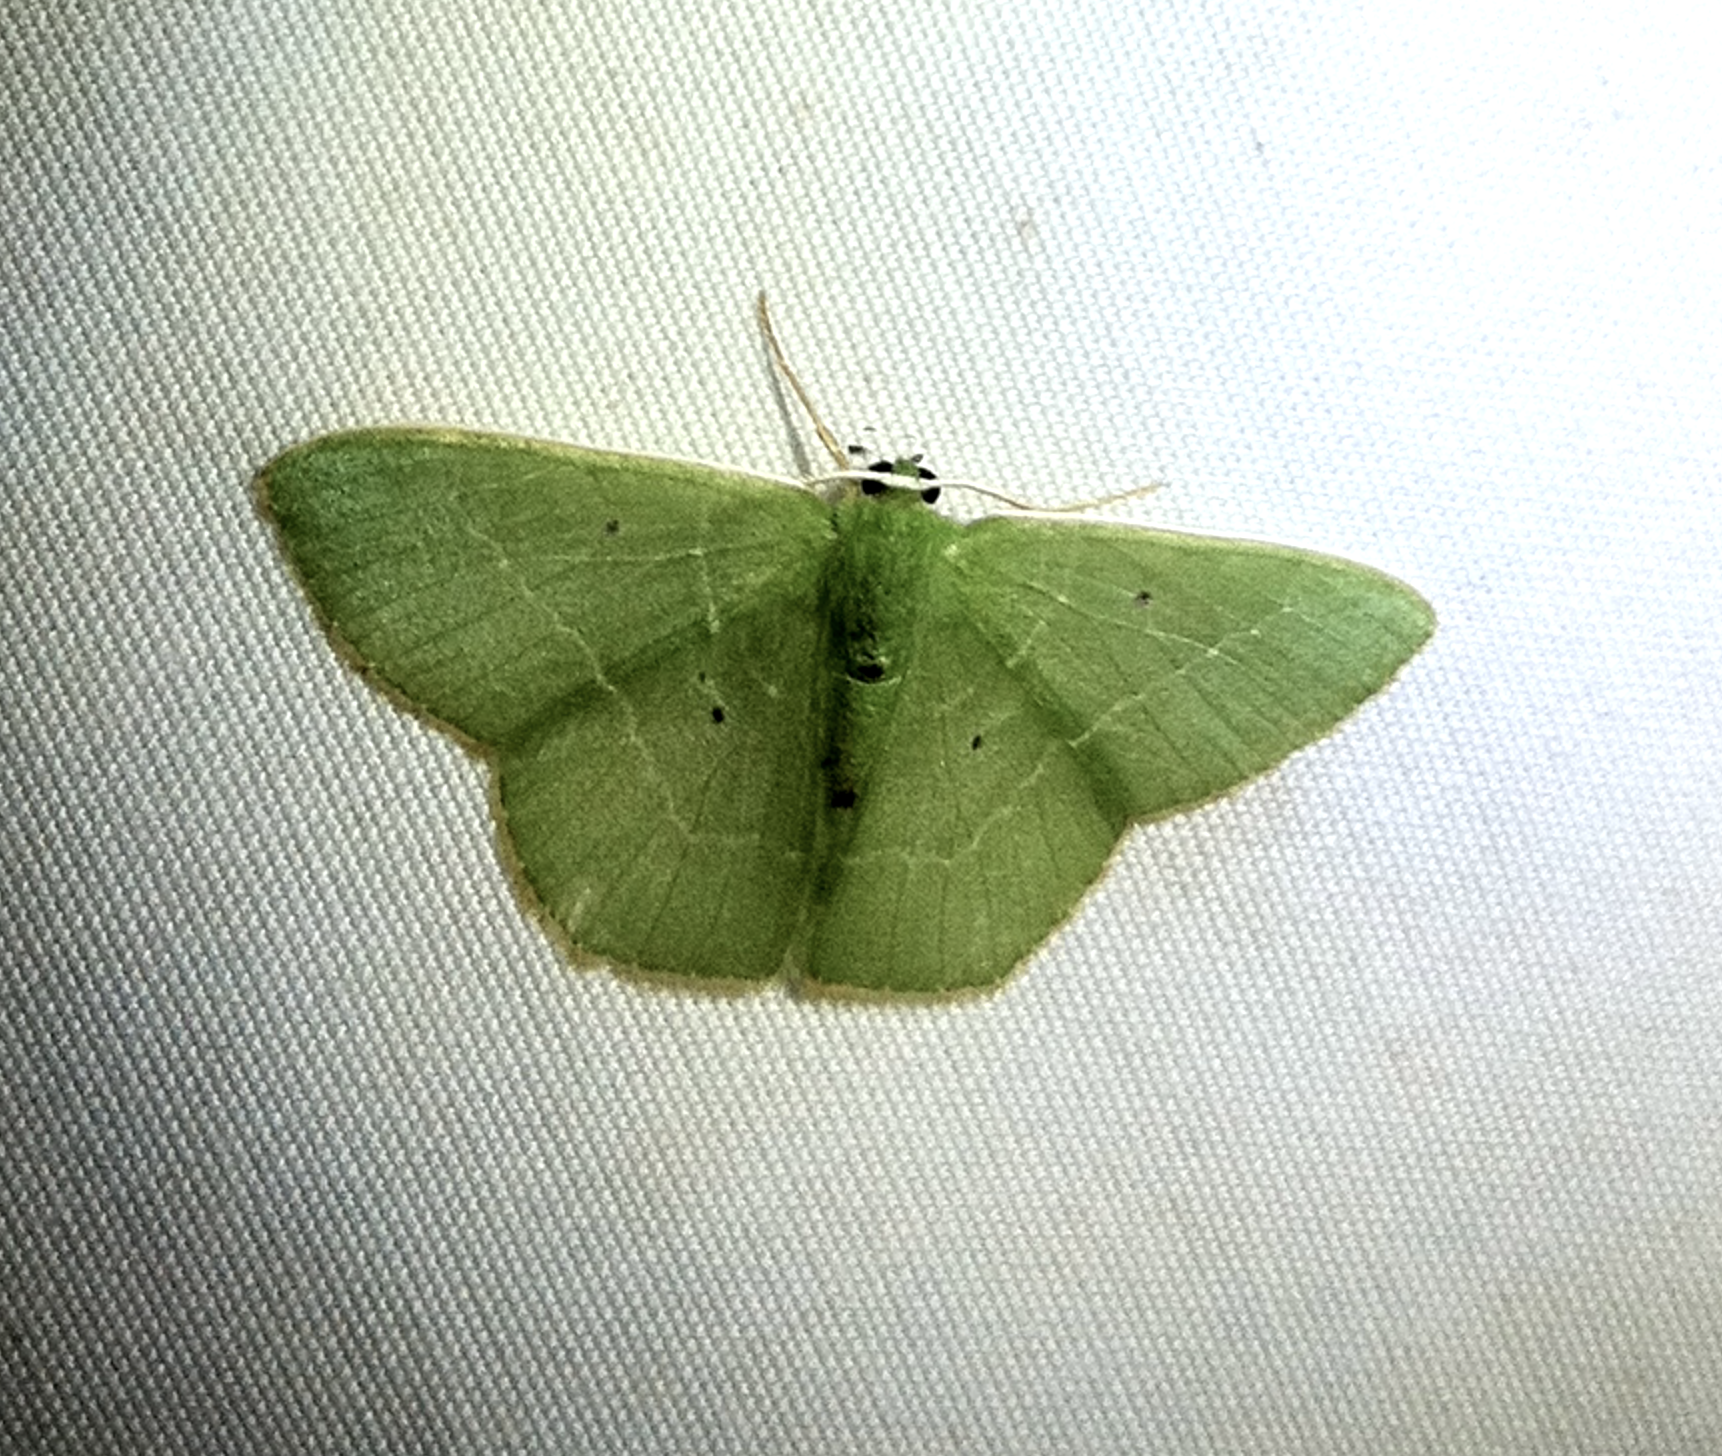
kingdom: Animalia
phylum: Arthropoda
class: Insecta
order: Lepidoptera
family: Geometridae
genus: Nemoria
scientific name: Nemoria remota
